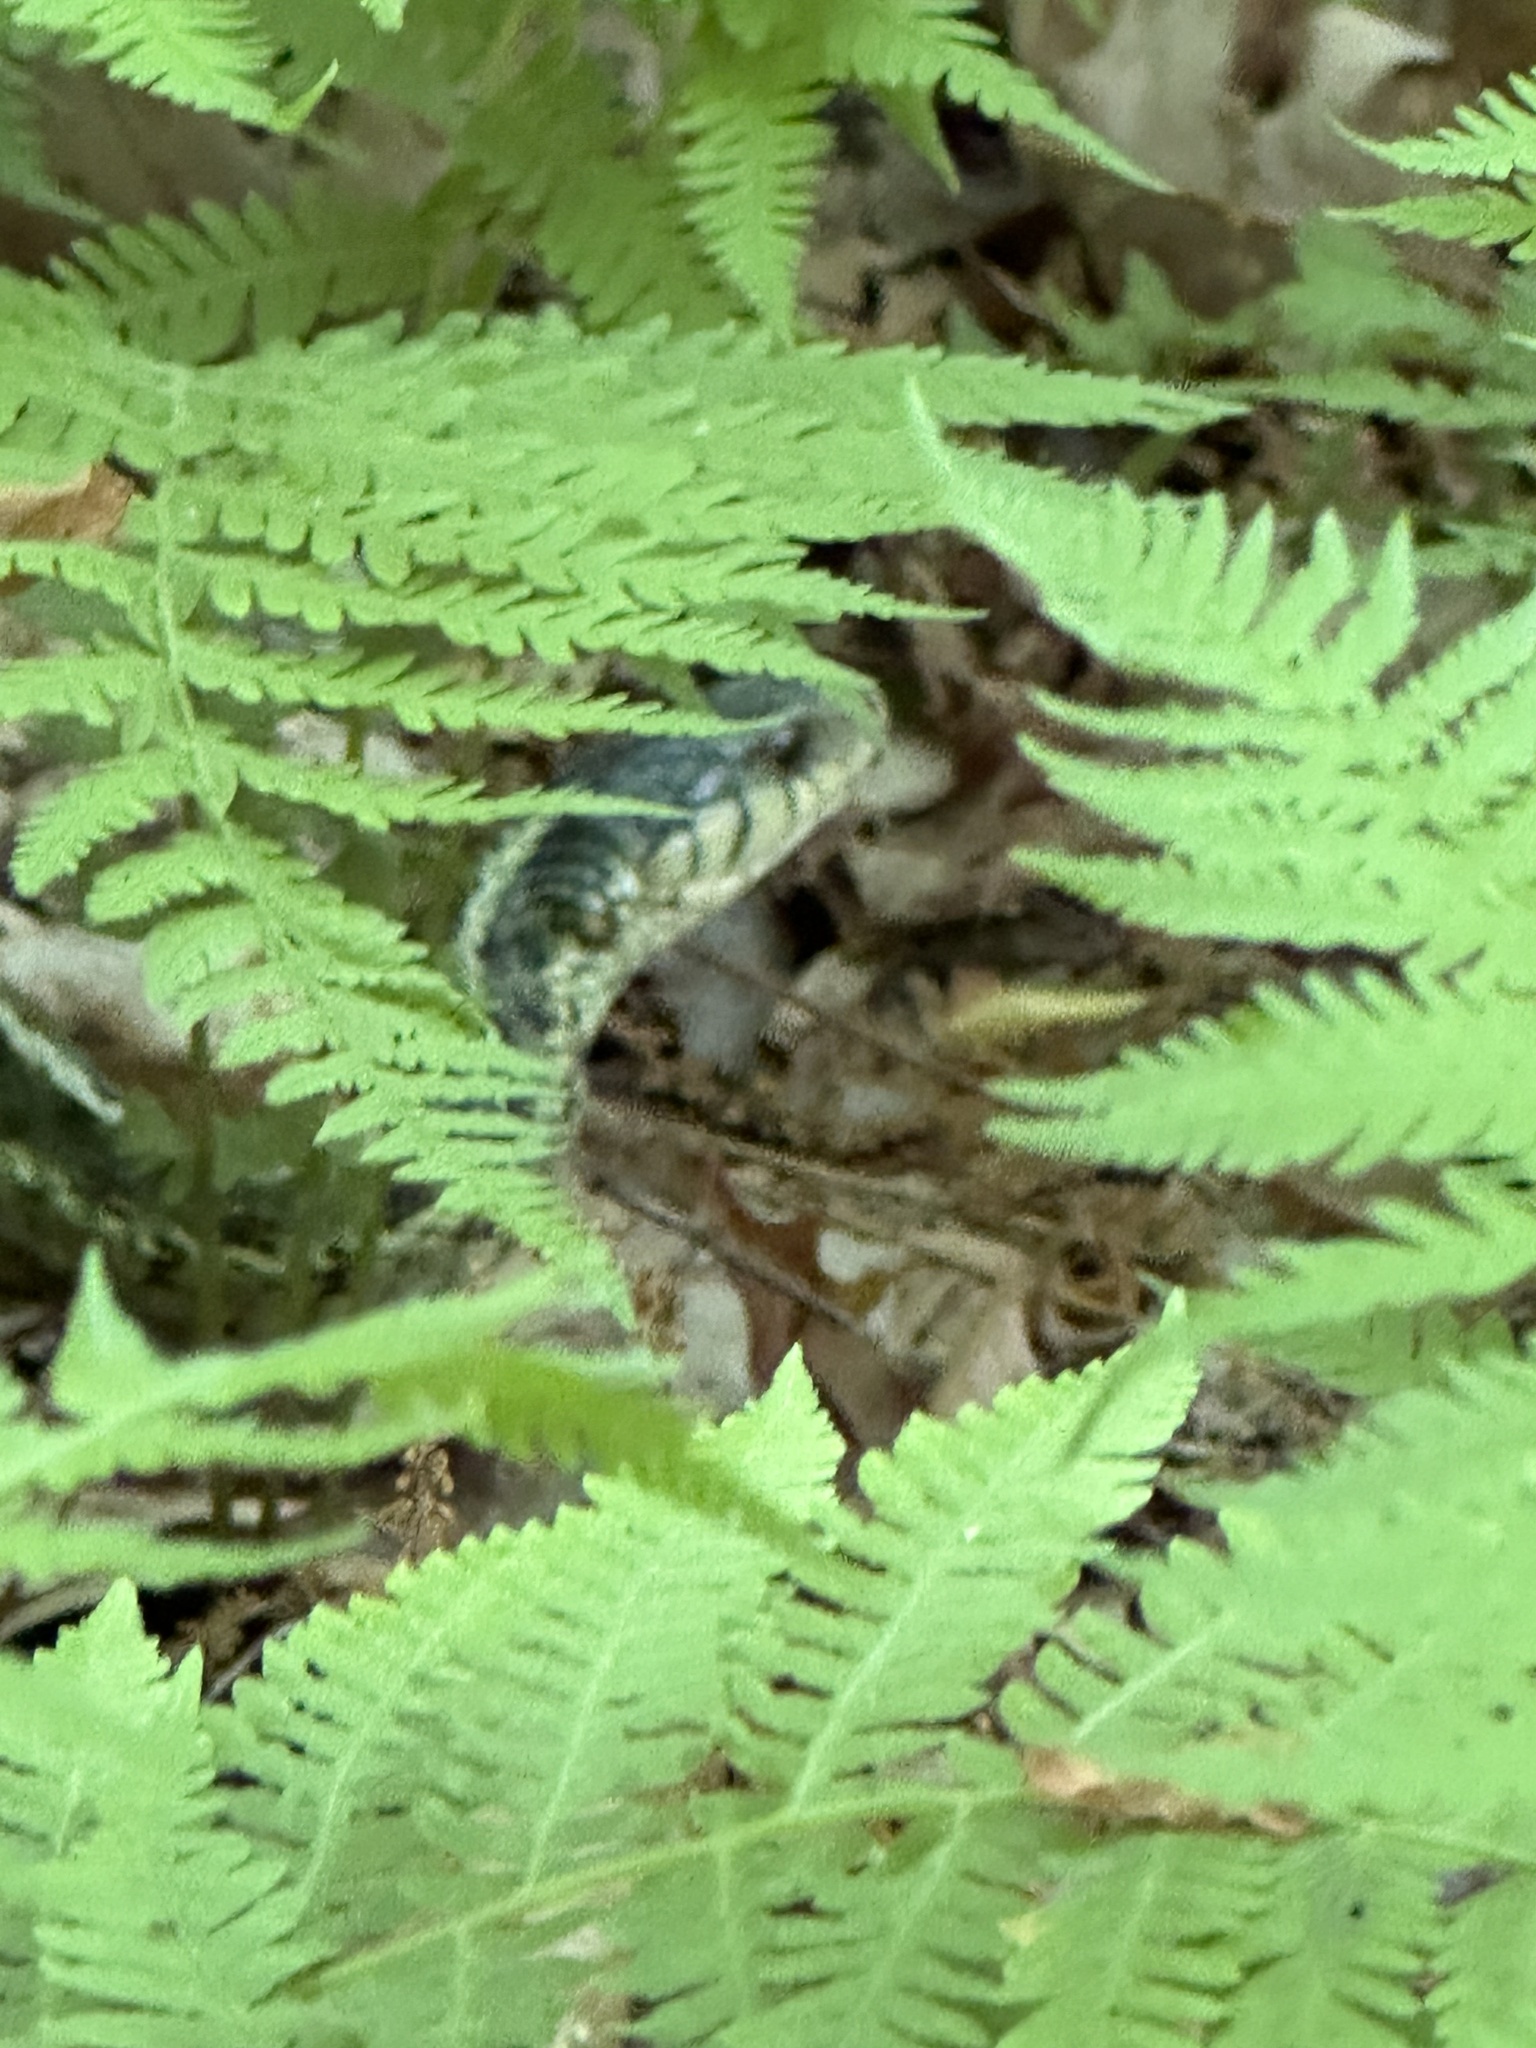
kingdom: Animalia
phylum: Chordata
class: Squamata
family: Colubridae
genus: Thamnophis
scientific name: Thamnophis sirtalis
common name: Common garter snake
